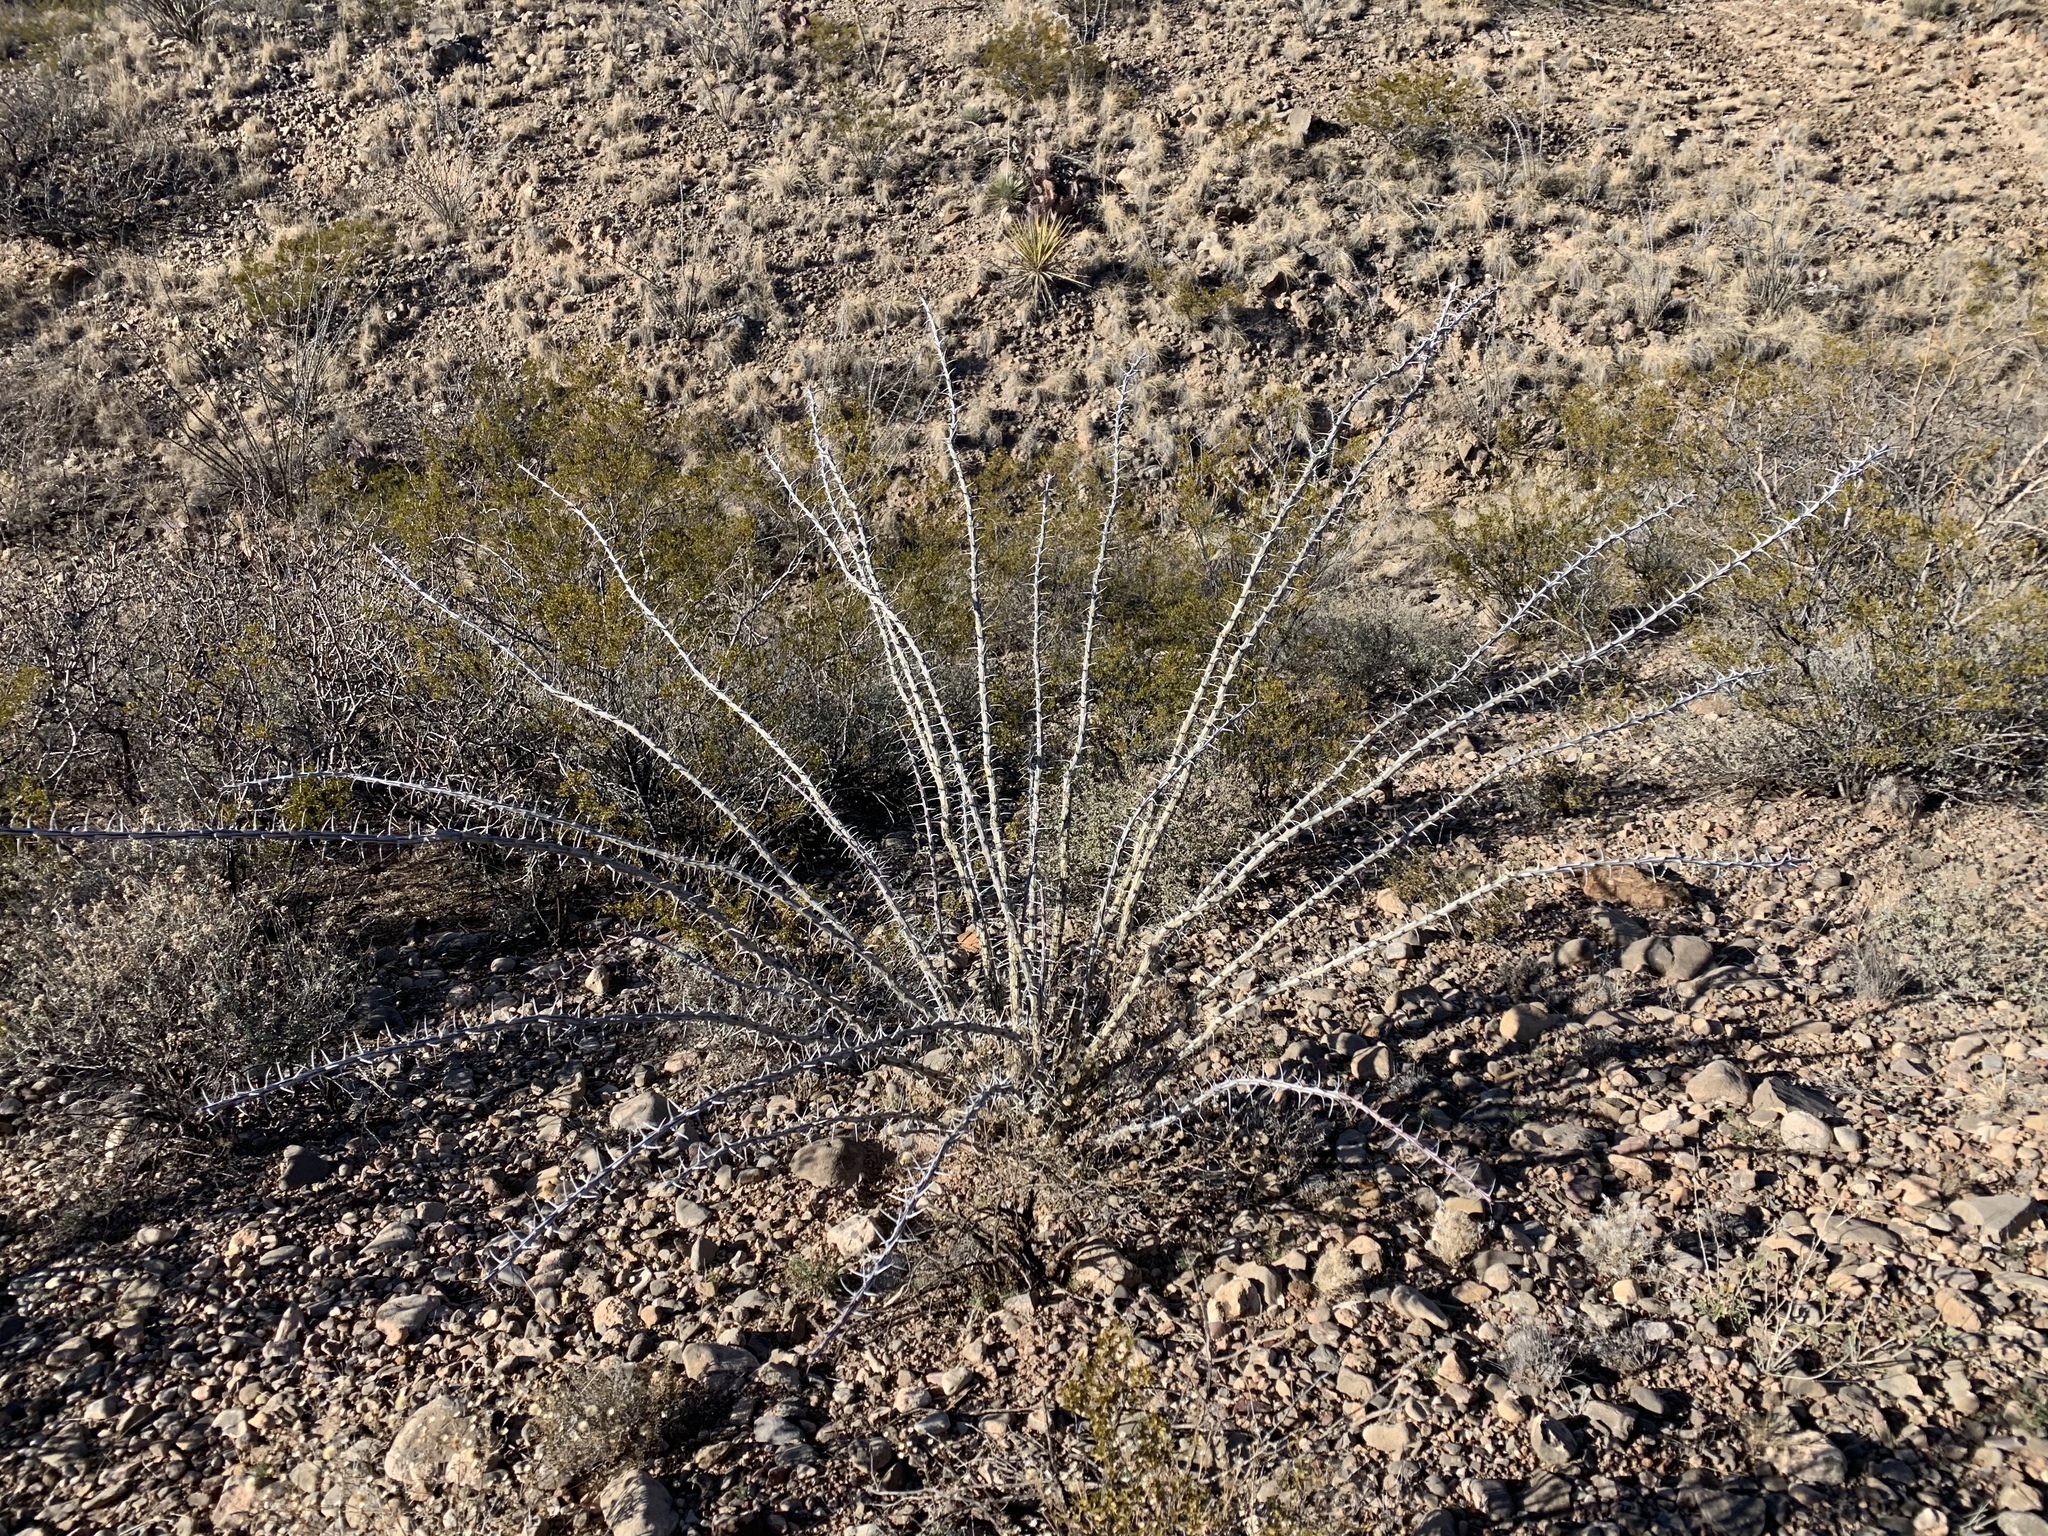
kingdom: Plantae
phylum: Tracheophyta
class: Magnoliopsida
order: Ericales
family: Fouquieriaceae
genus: Fouquieria
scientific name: Fouquieria splendens
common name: Vine-cactus
